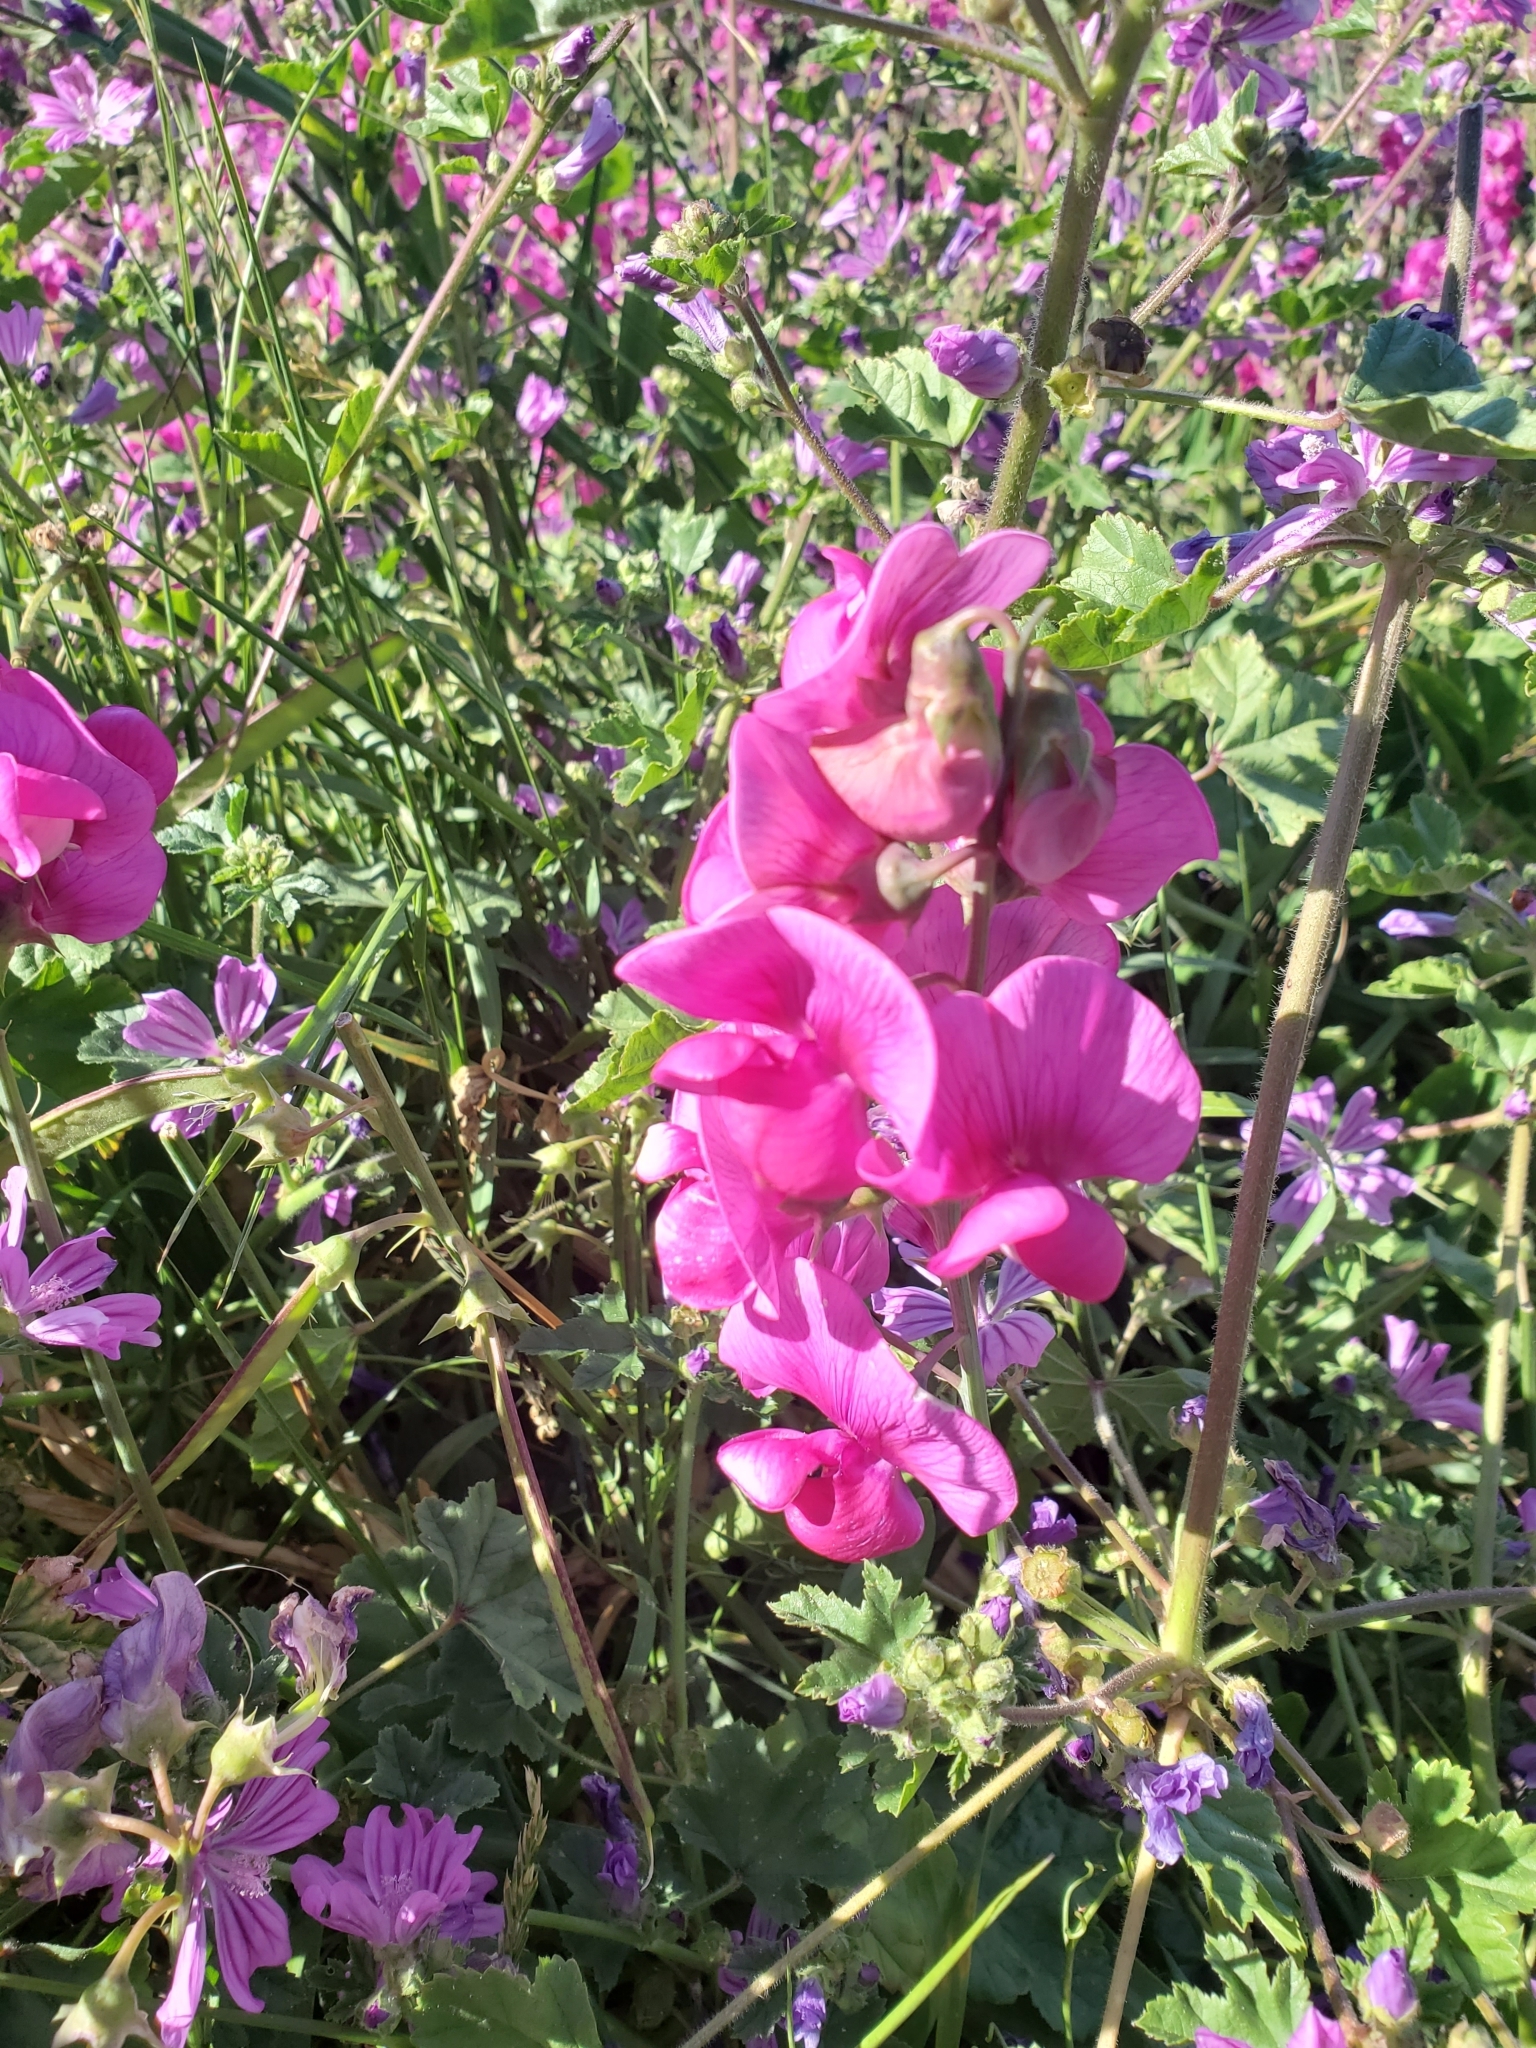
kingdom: Plantae
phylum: Tracheophyta
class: Magnoliopsida
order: Fabales
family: Fabaceae
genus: Lathyrus
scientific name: Lathyrus latifolius
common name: Perennial pea
